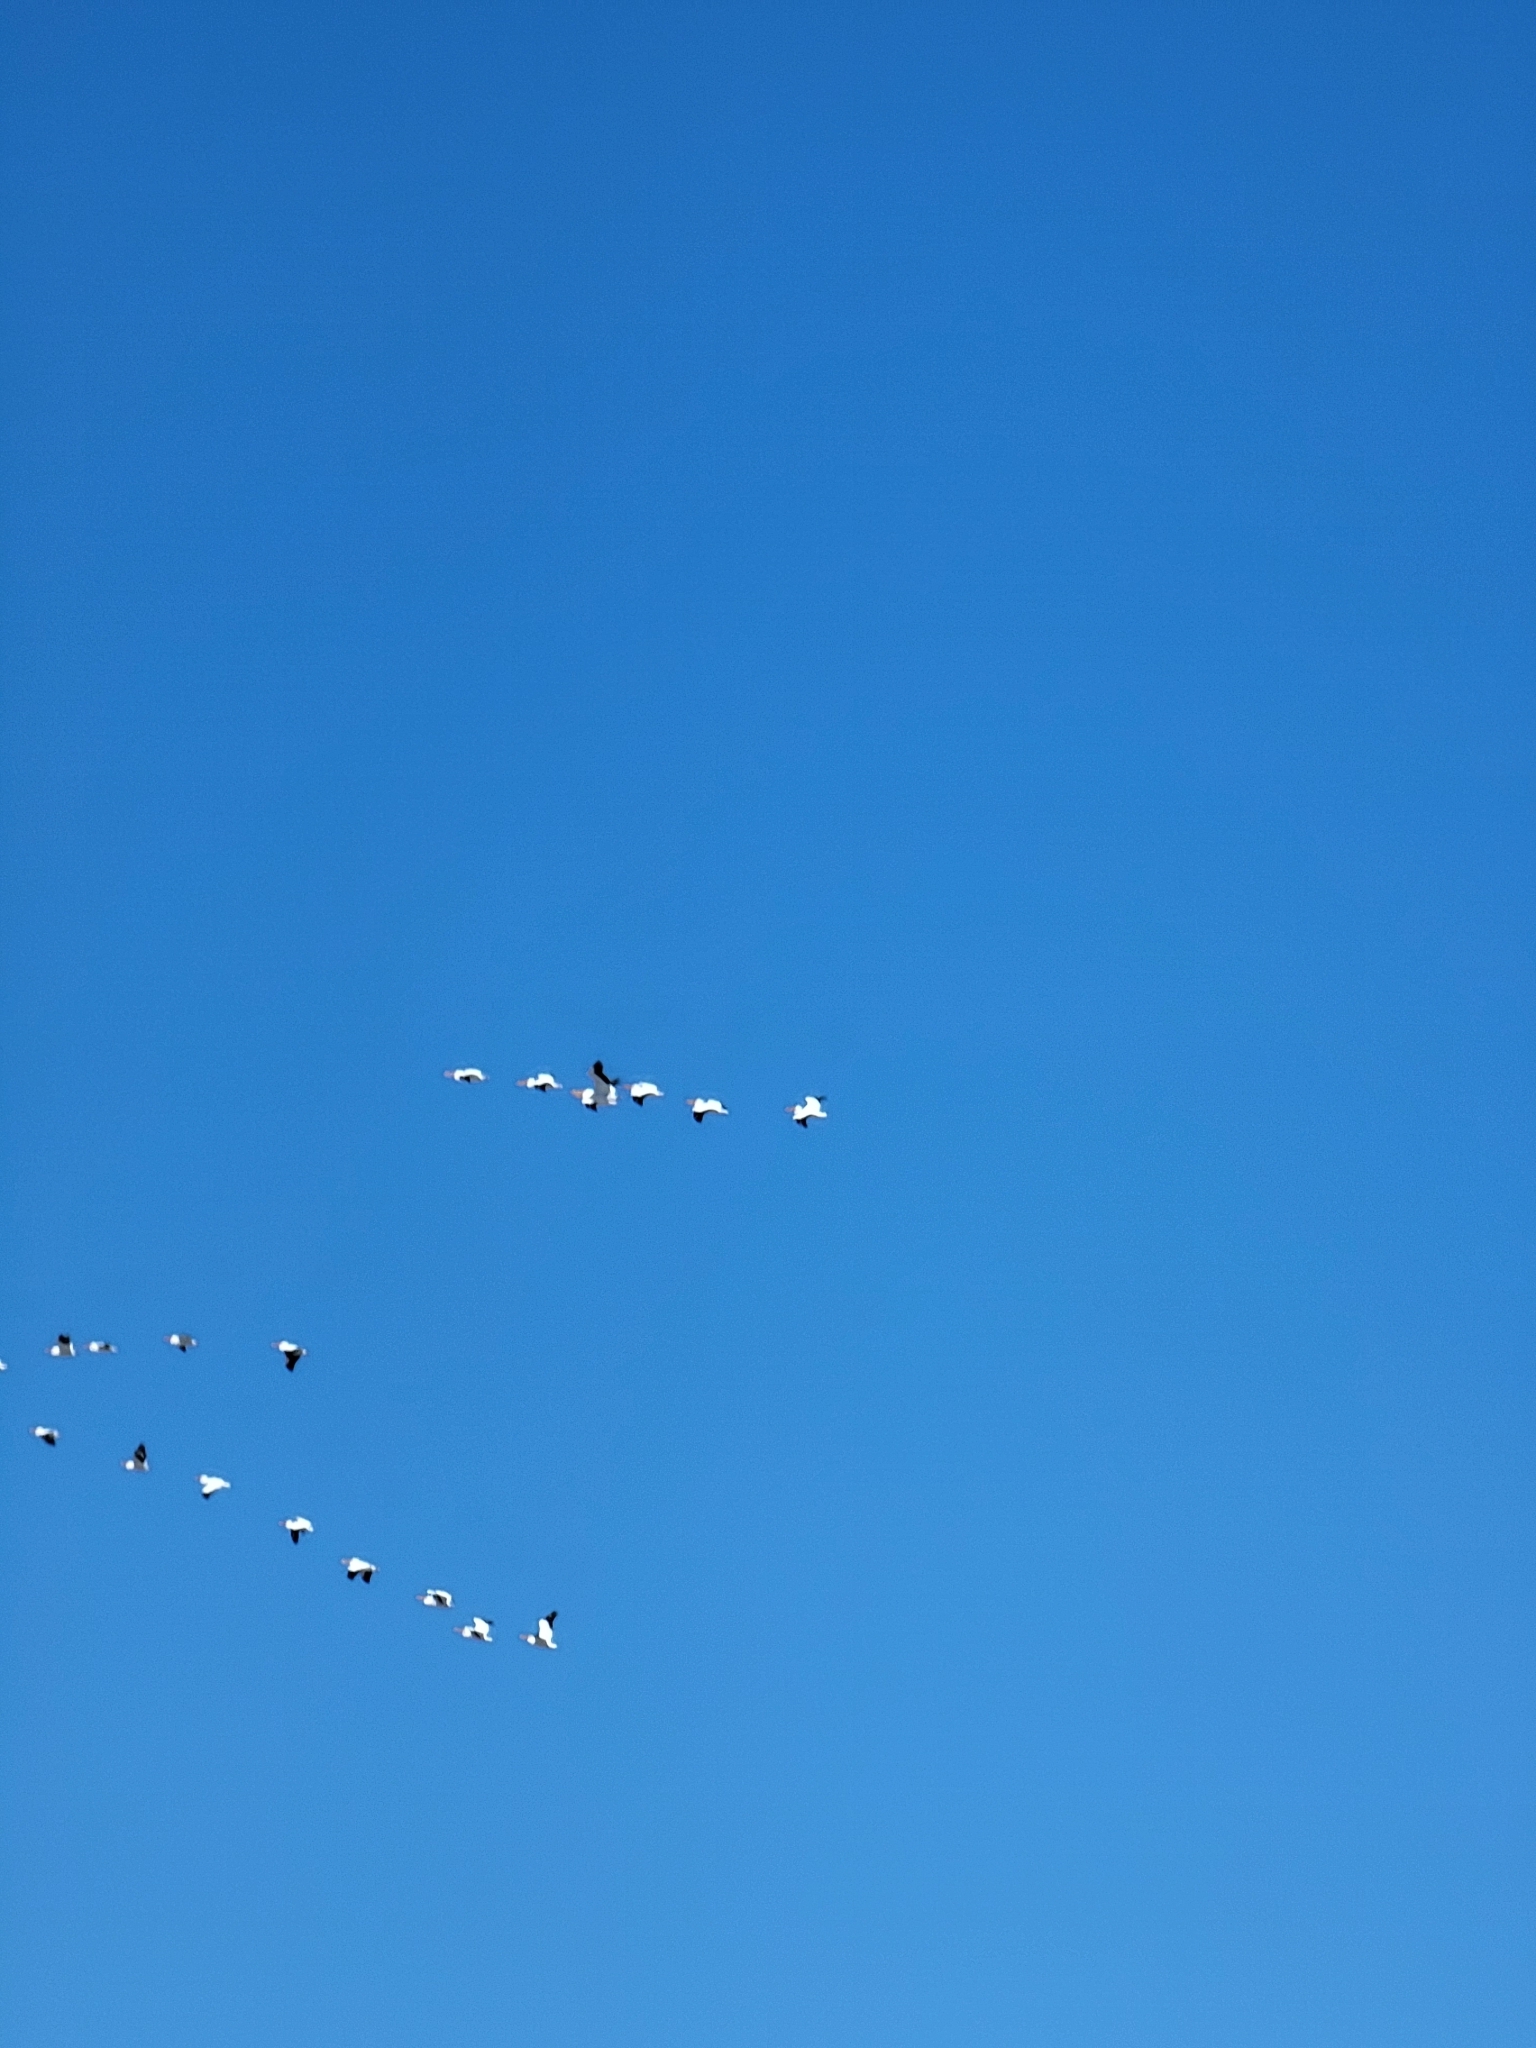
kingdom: Animalia
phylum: Chordata
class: Aves
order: Pelecaniformes
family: Pelecanidae
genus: Pelecanus
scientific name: Pelecanus erythrorhynchos
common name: American white pelican
